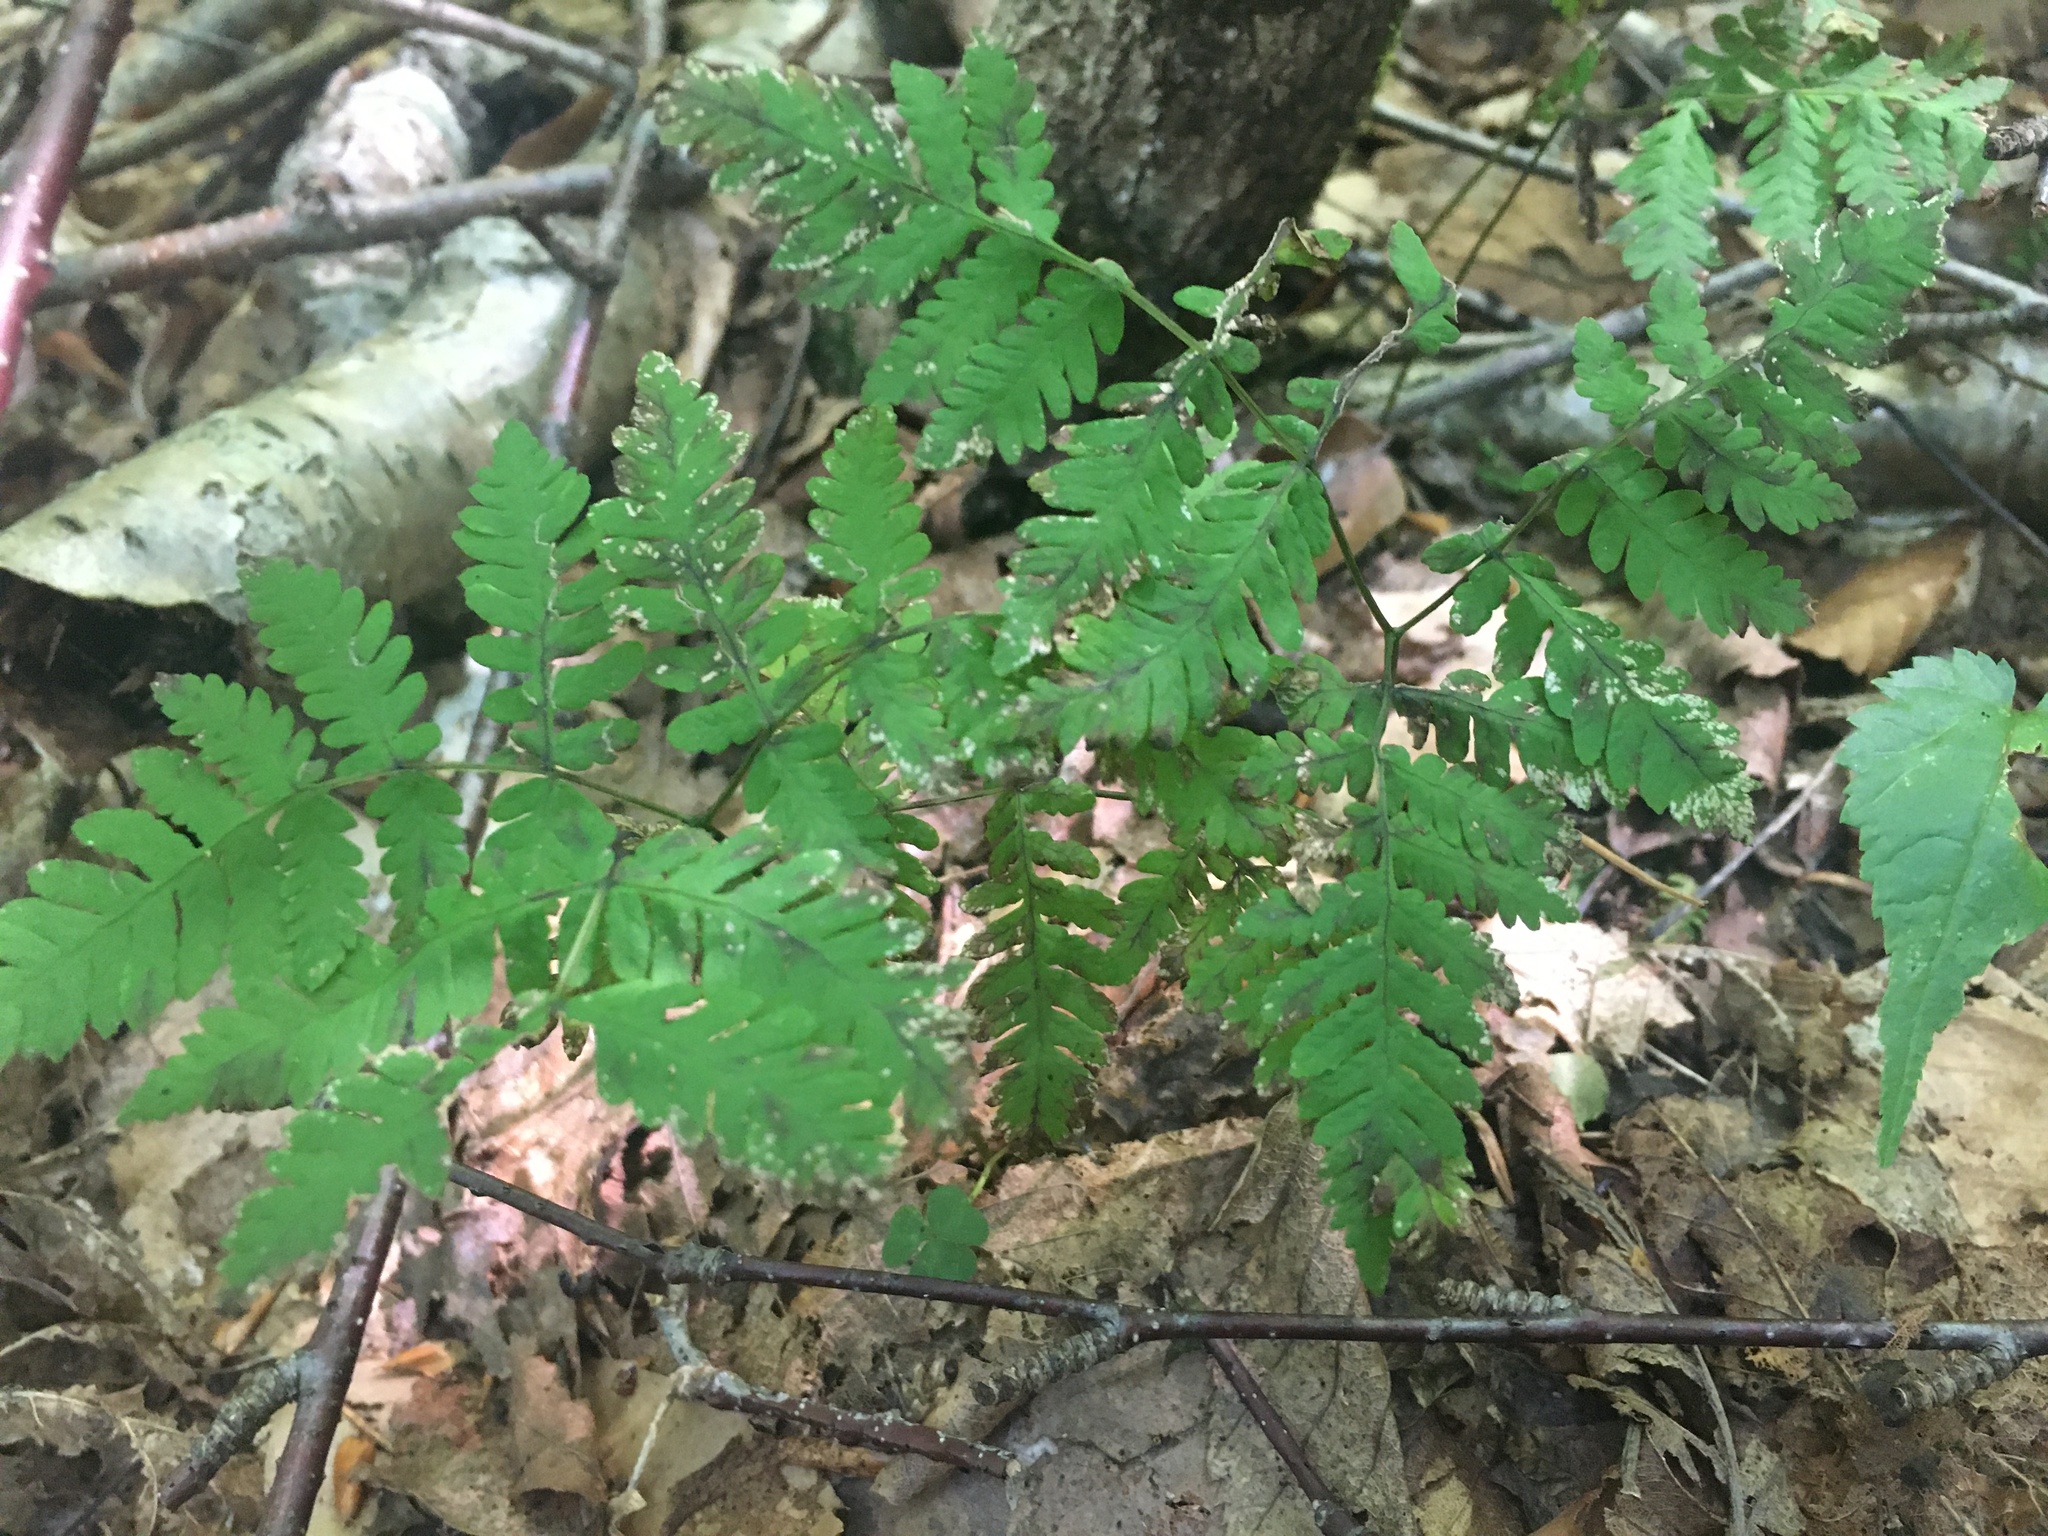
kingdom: Plantae
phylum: Tracheophyta
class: Polypodiopsida
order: Polypodiales
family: Cystopteridaceae
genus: Gymnocarpium
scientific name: Gymnocarpium dryopteris
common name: Oak fern
